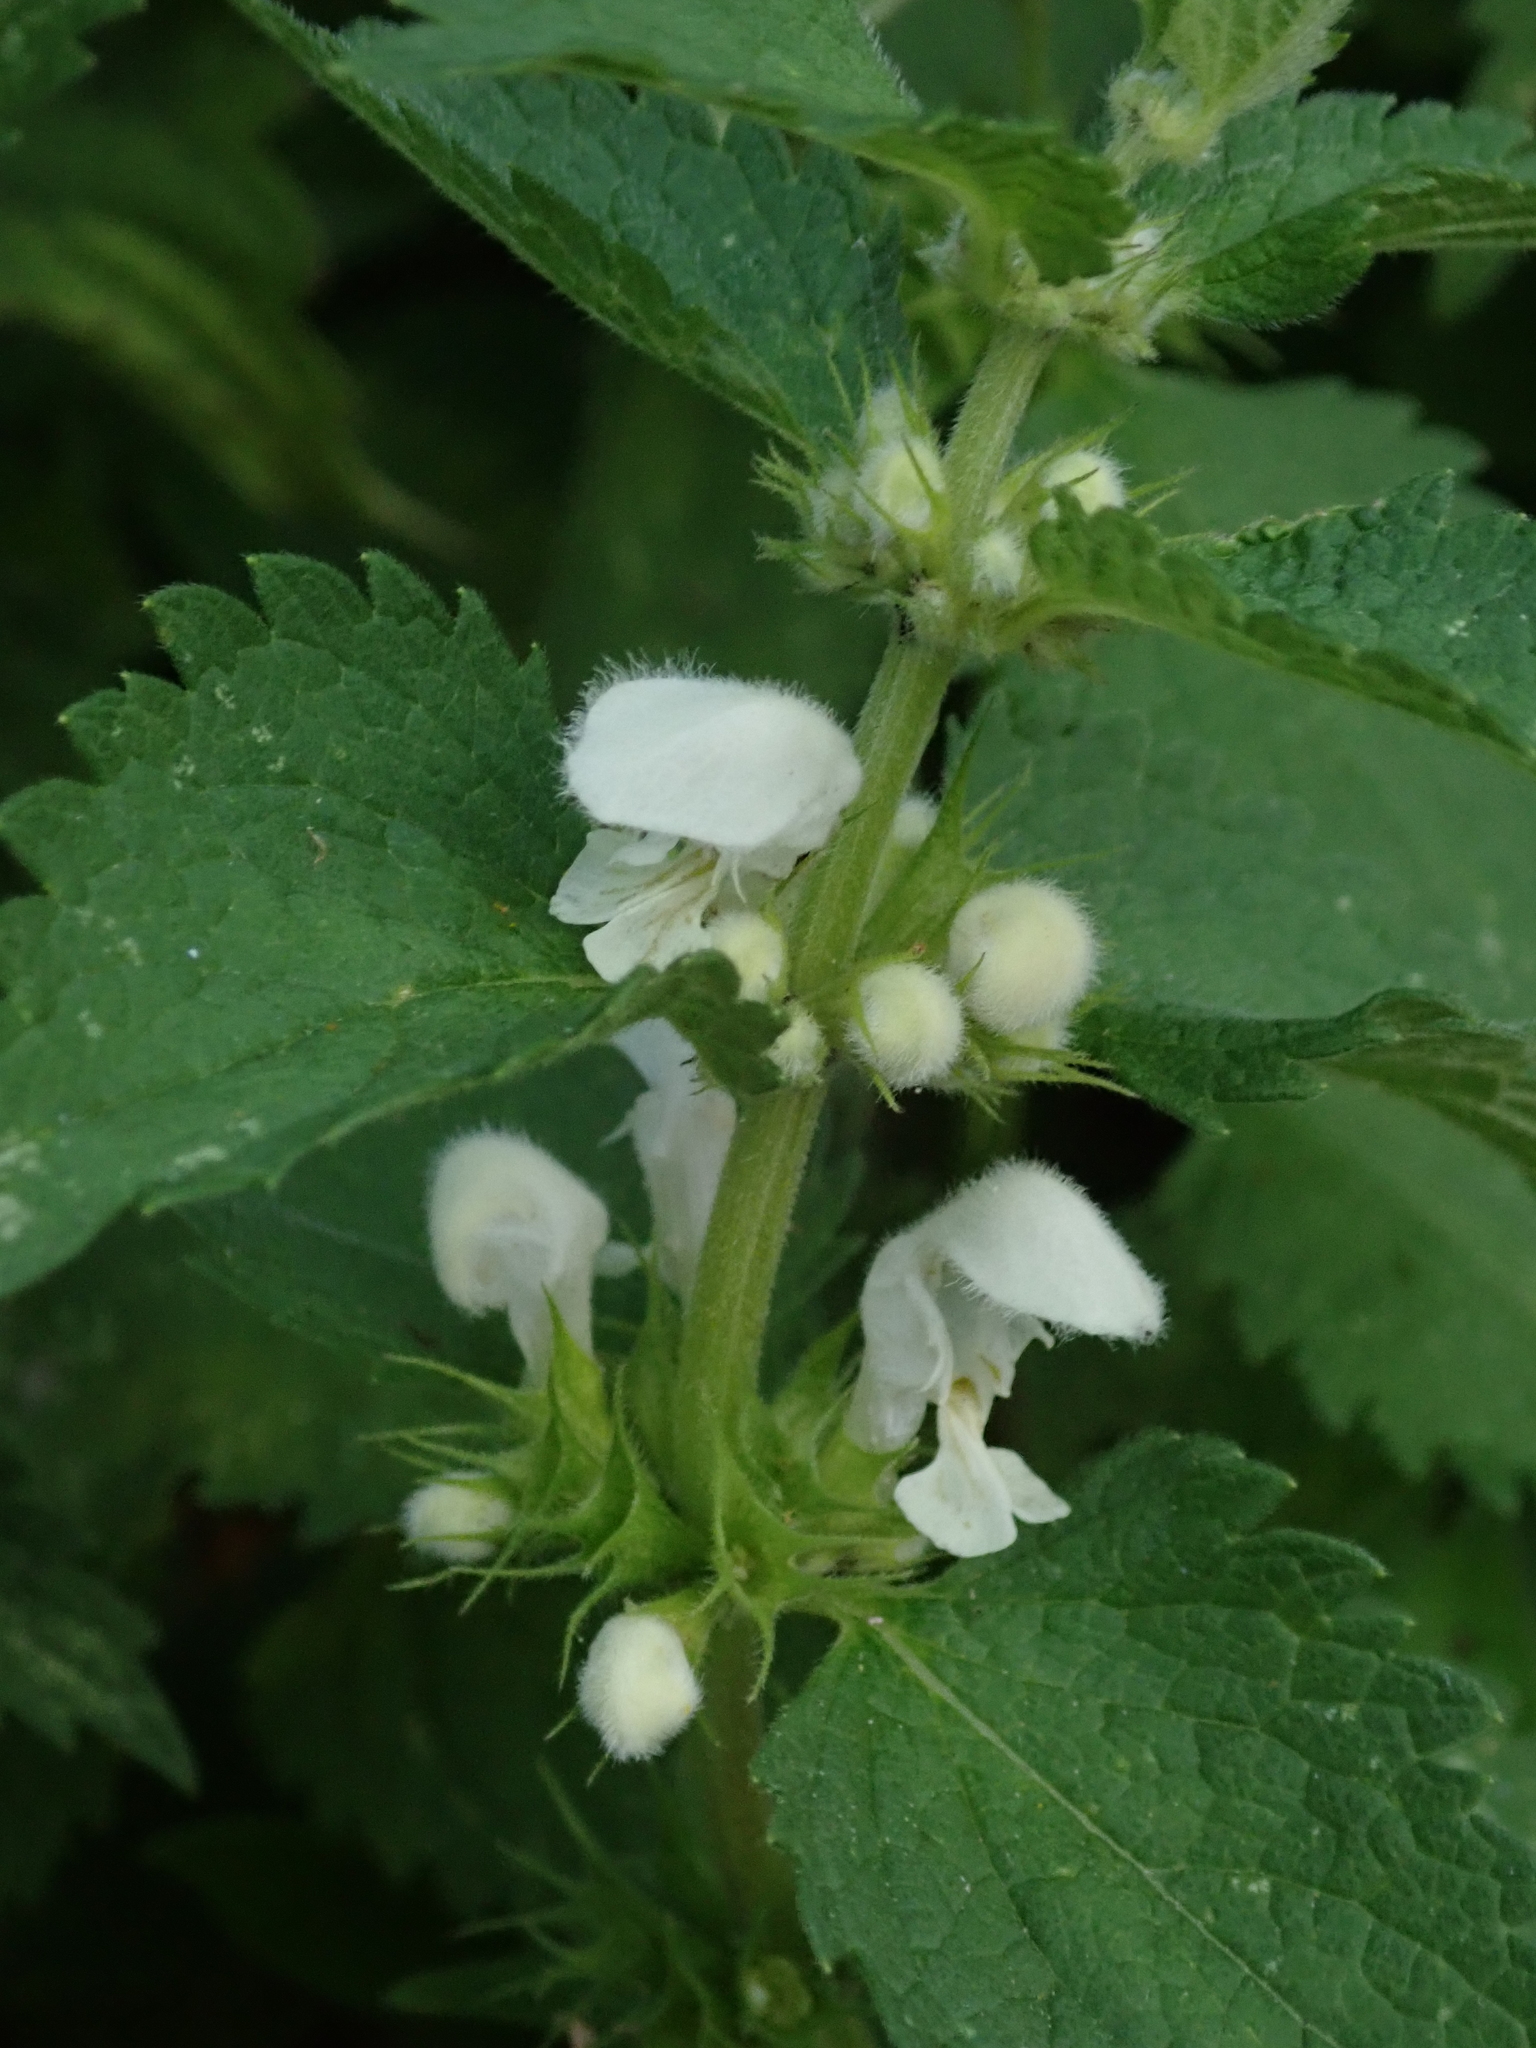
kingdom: Plantae
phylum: Tracheophyta
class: Magnoliopsida
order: Lamiales
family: Lamiaceae
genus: Lamium
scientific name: Lamium album
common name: White dead-nettle
